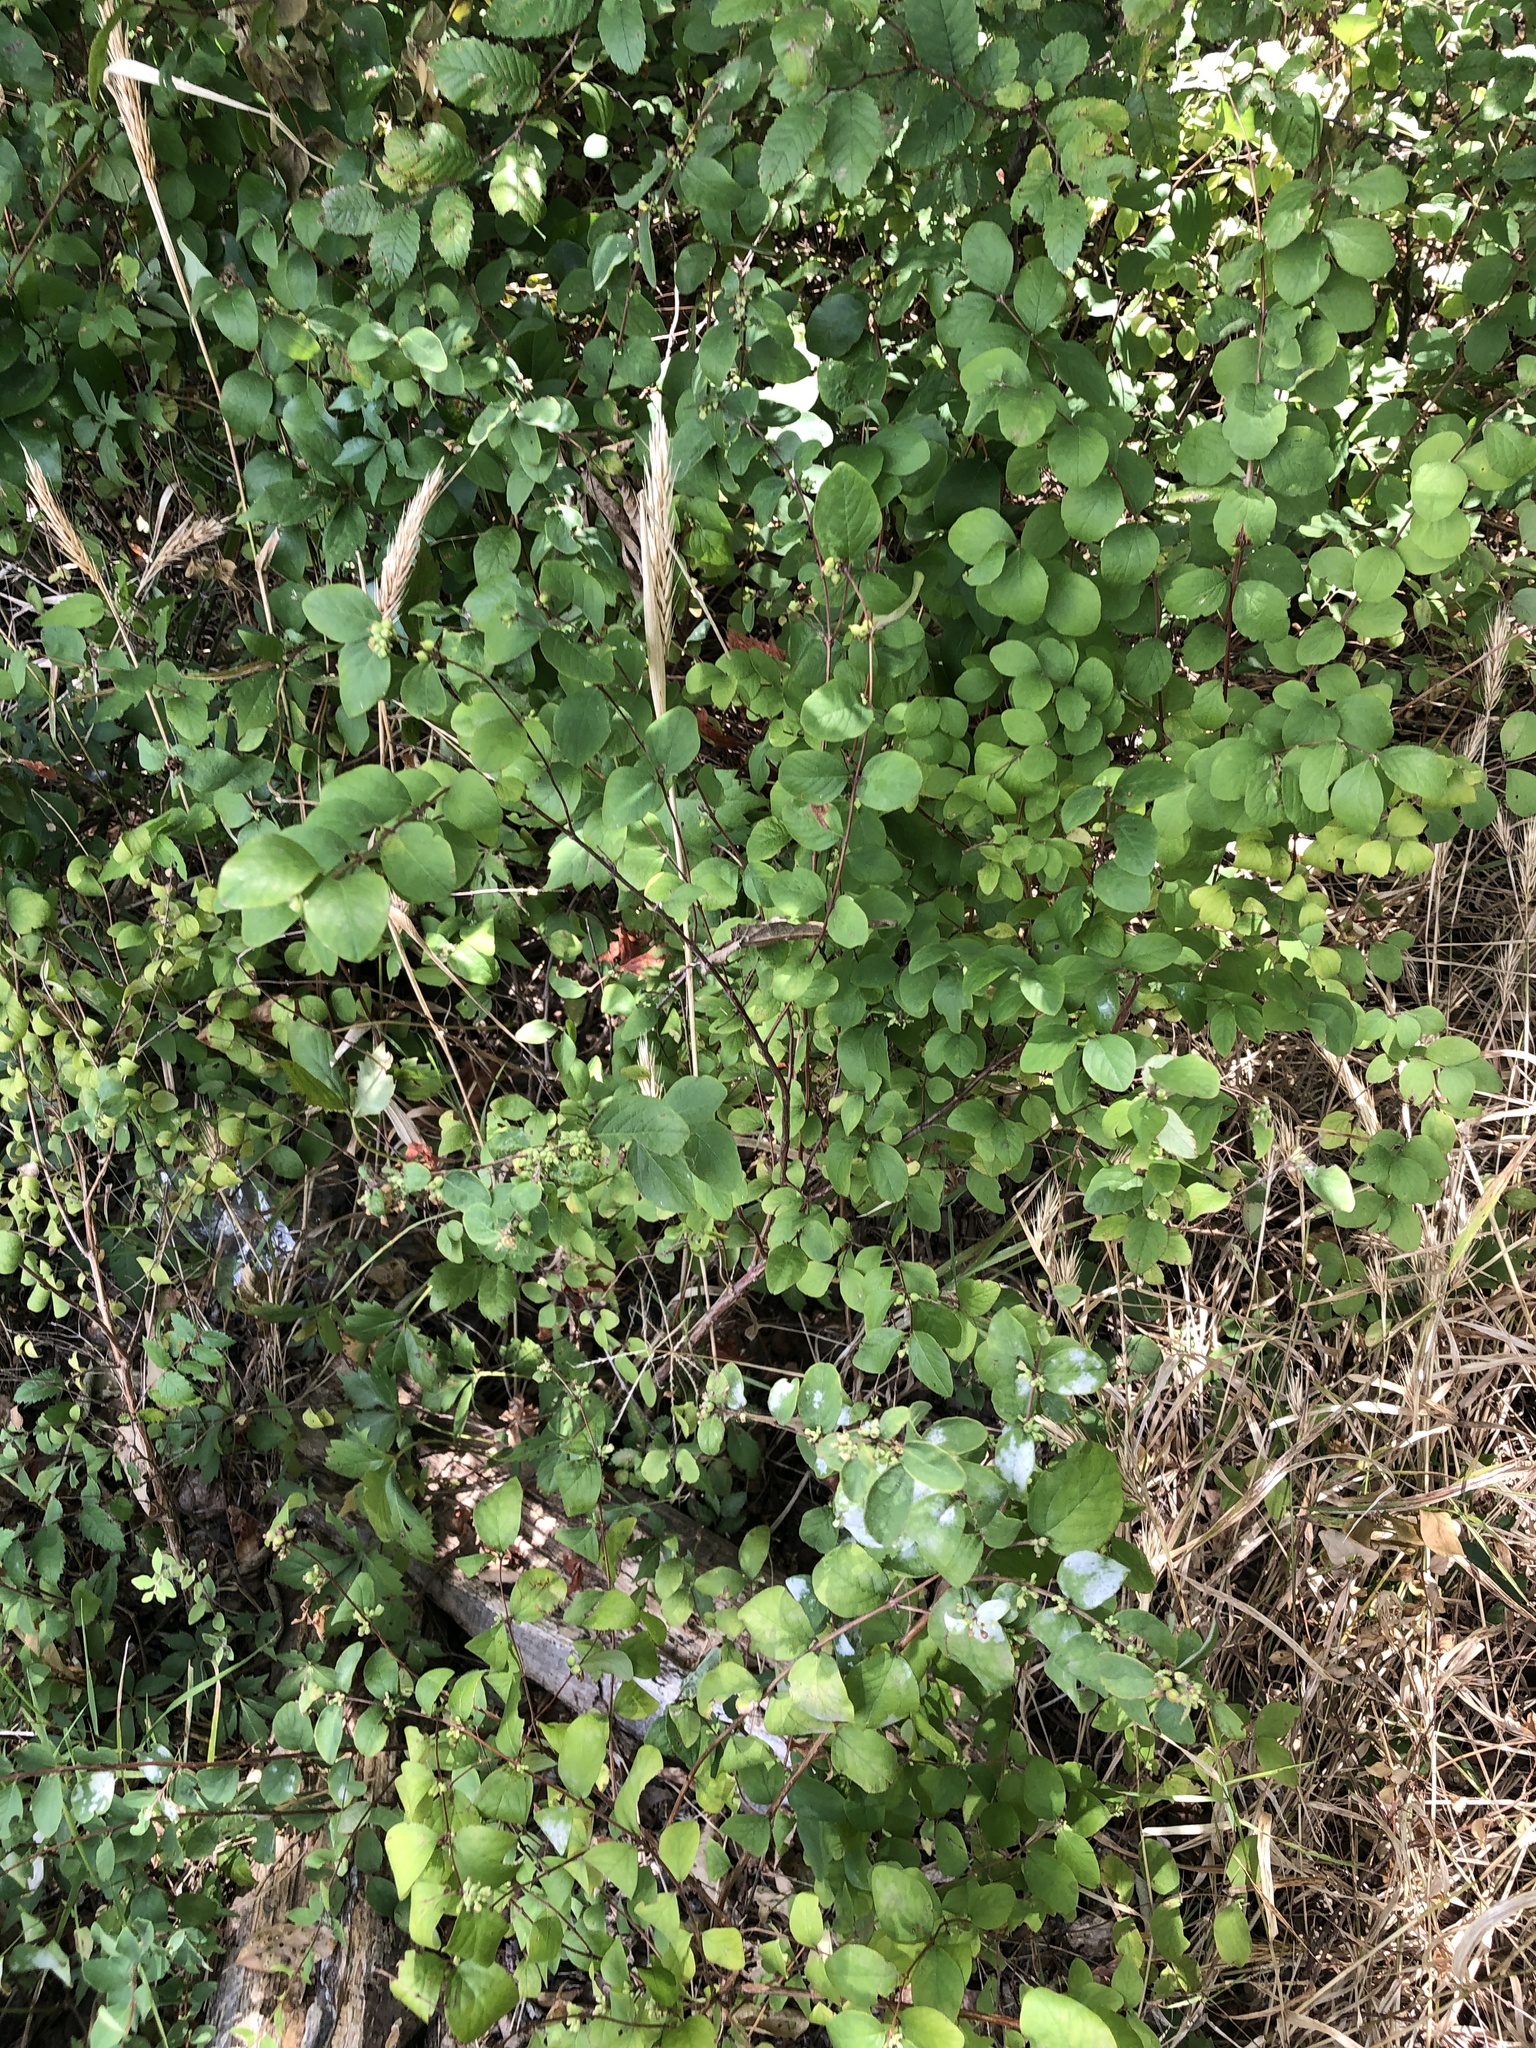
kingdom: Plantae
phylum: Tracheophyta
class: Magnoliopsida
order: Dipsacales
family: Caprifoliaceae
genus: Symphoricarpos
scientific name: Symphoricarpos orbiculatus
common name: Coralberry
